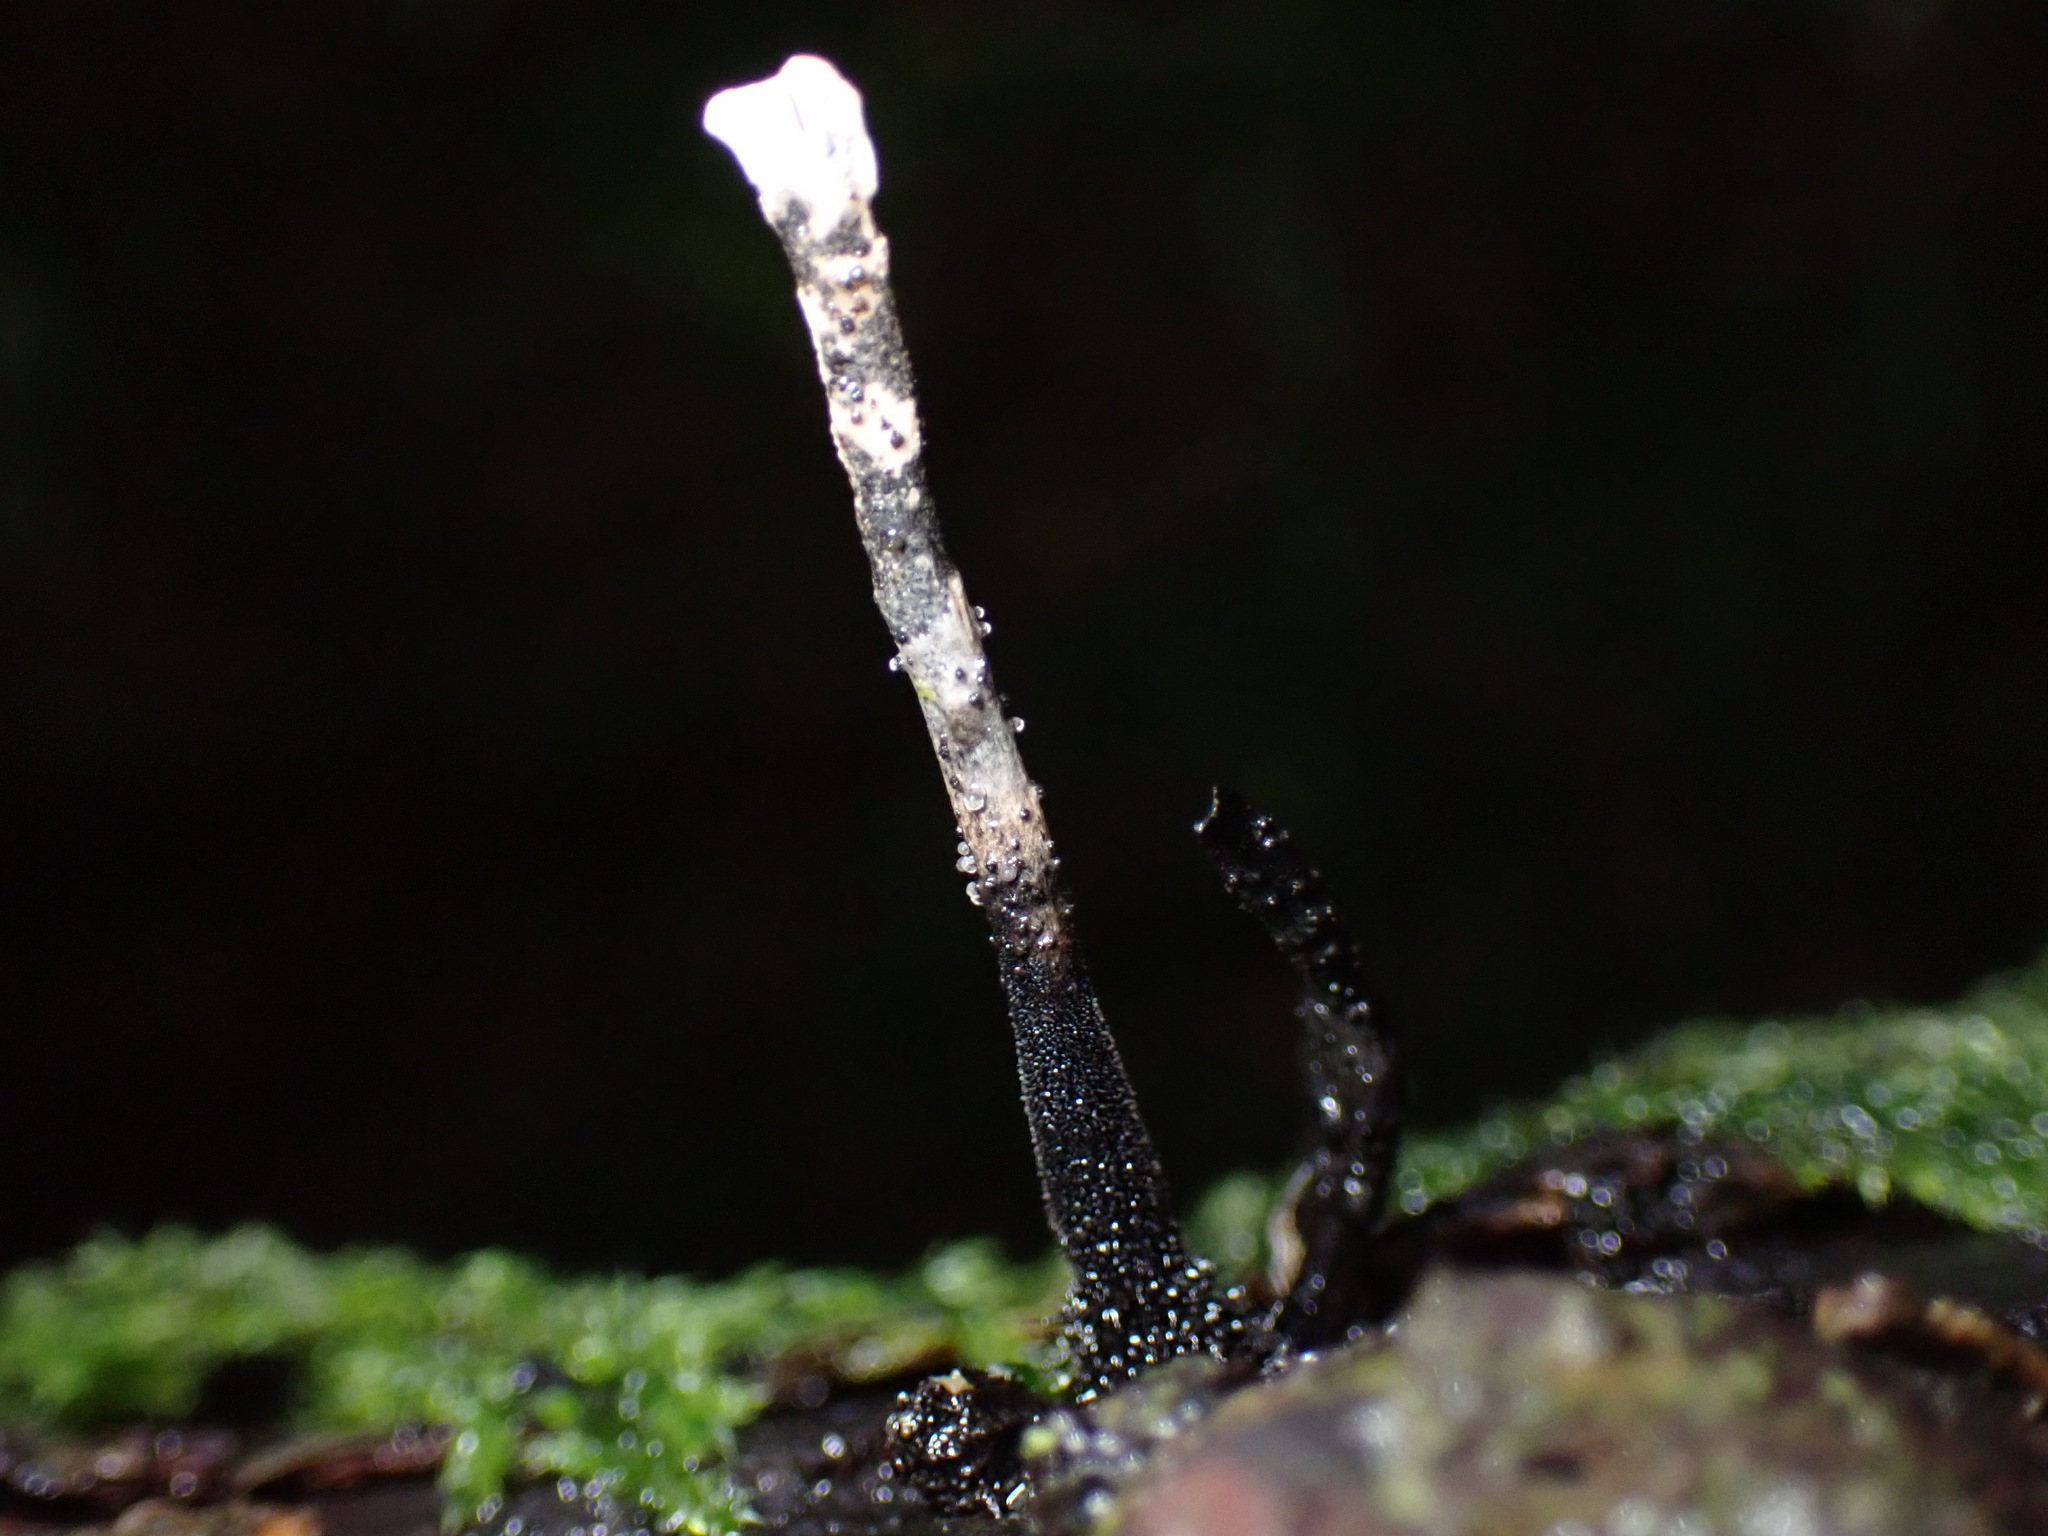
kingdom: Fungi
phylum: Ascomycota
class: Sordariomycetes
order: Xylariales
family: Xylariaceae
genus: Xylaria
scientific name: Xylaria hypoxylon
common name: Candle-snuff fungus
